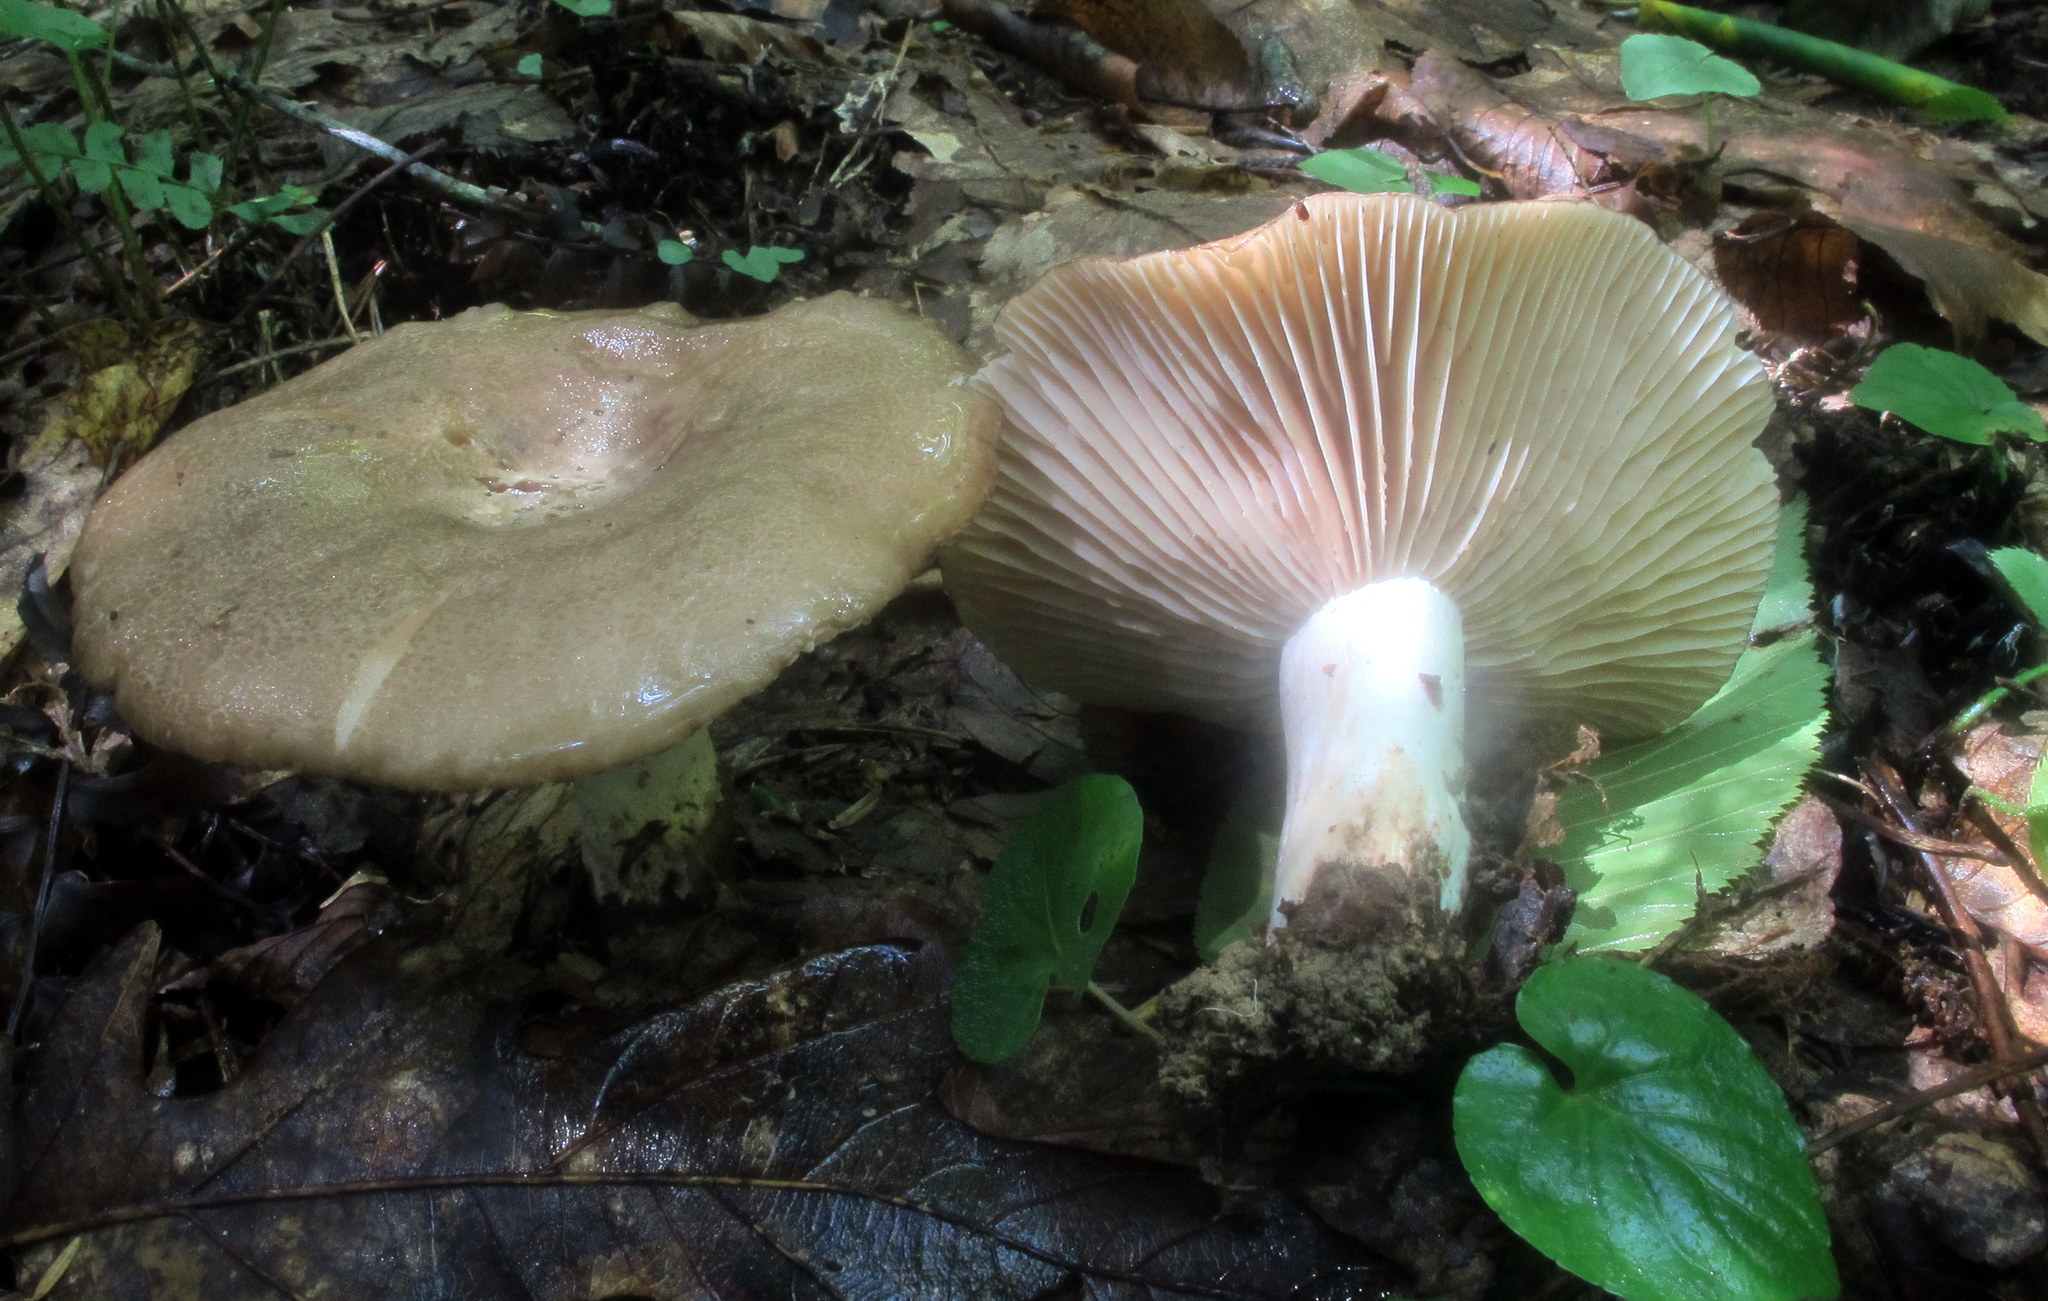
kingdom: Fungi
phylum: Basidiomycota
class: Agaricomycetes
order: Russulales
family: Russulaceae
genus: Russula
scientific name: Russula adusta
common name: Winecork brittlegill
